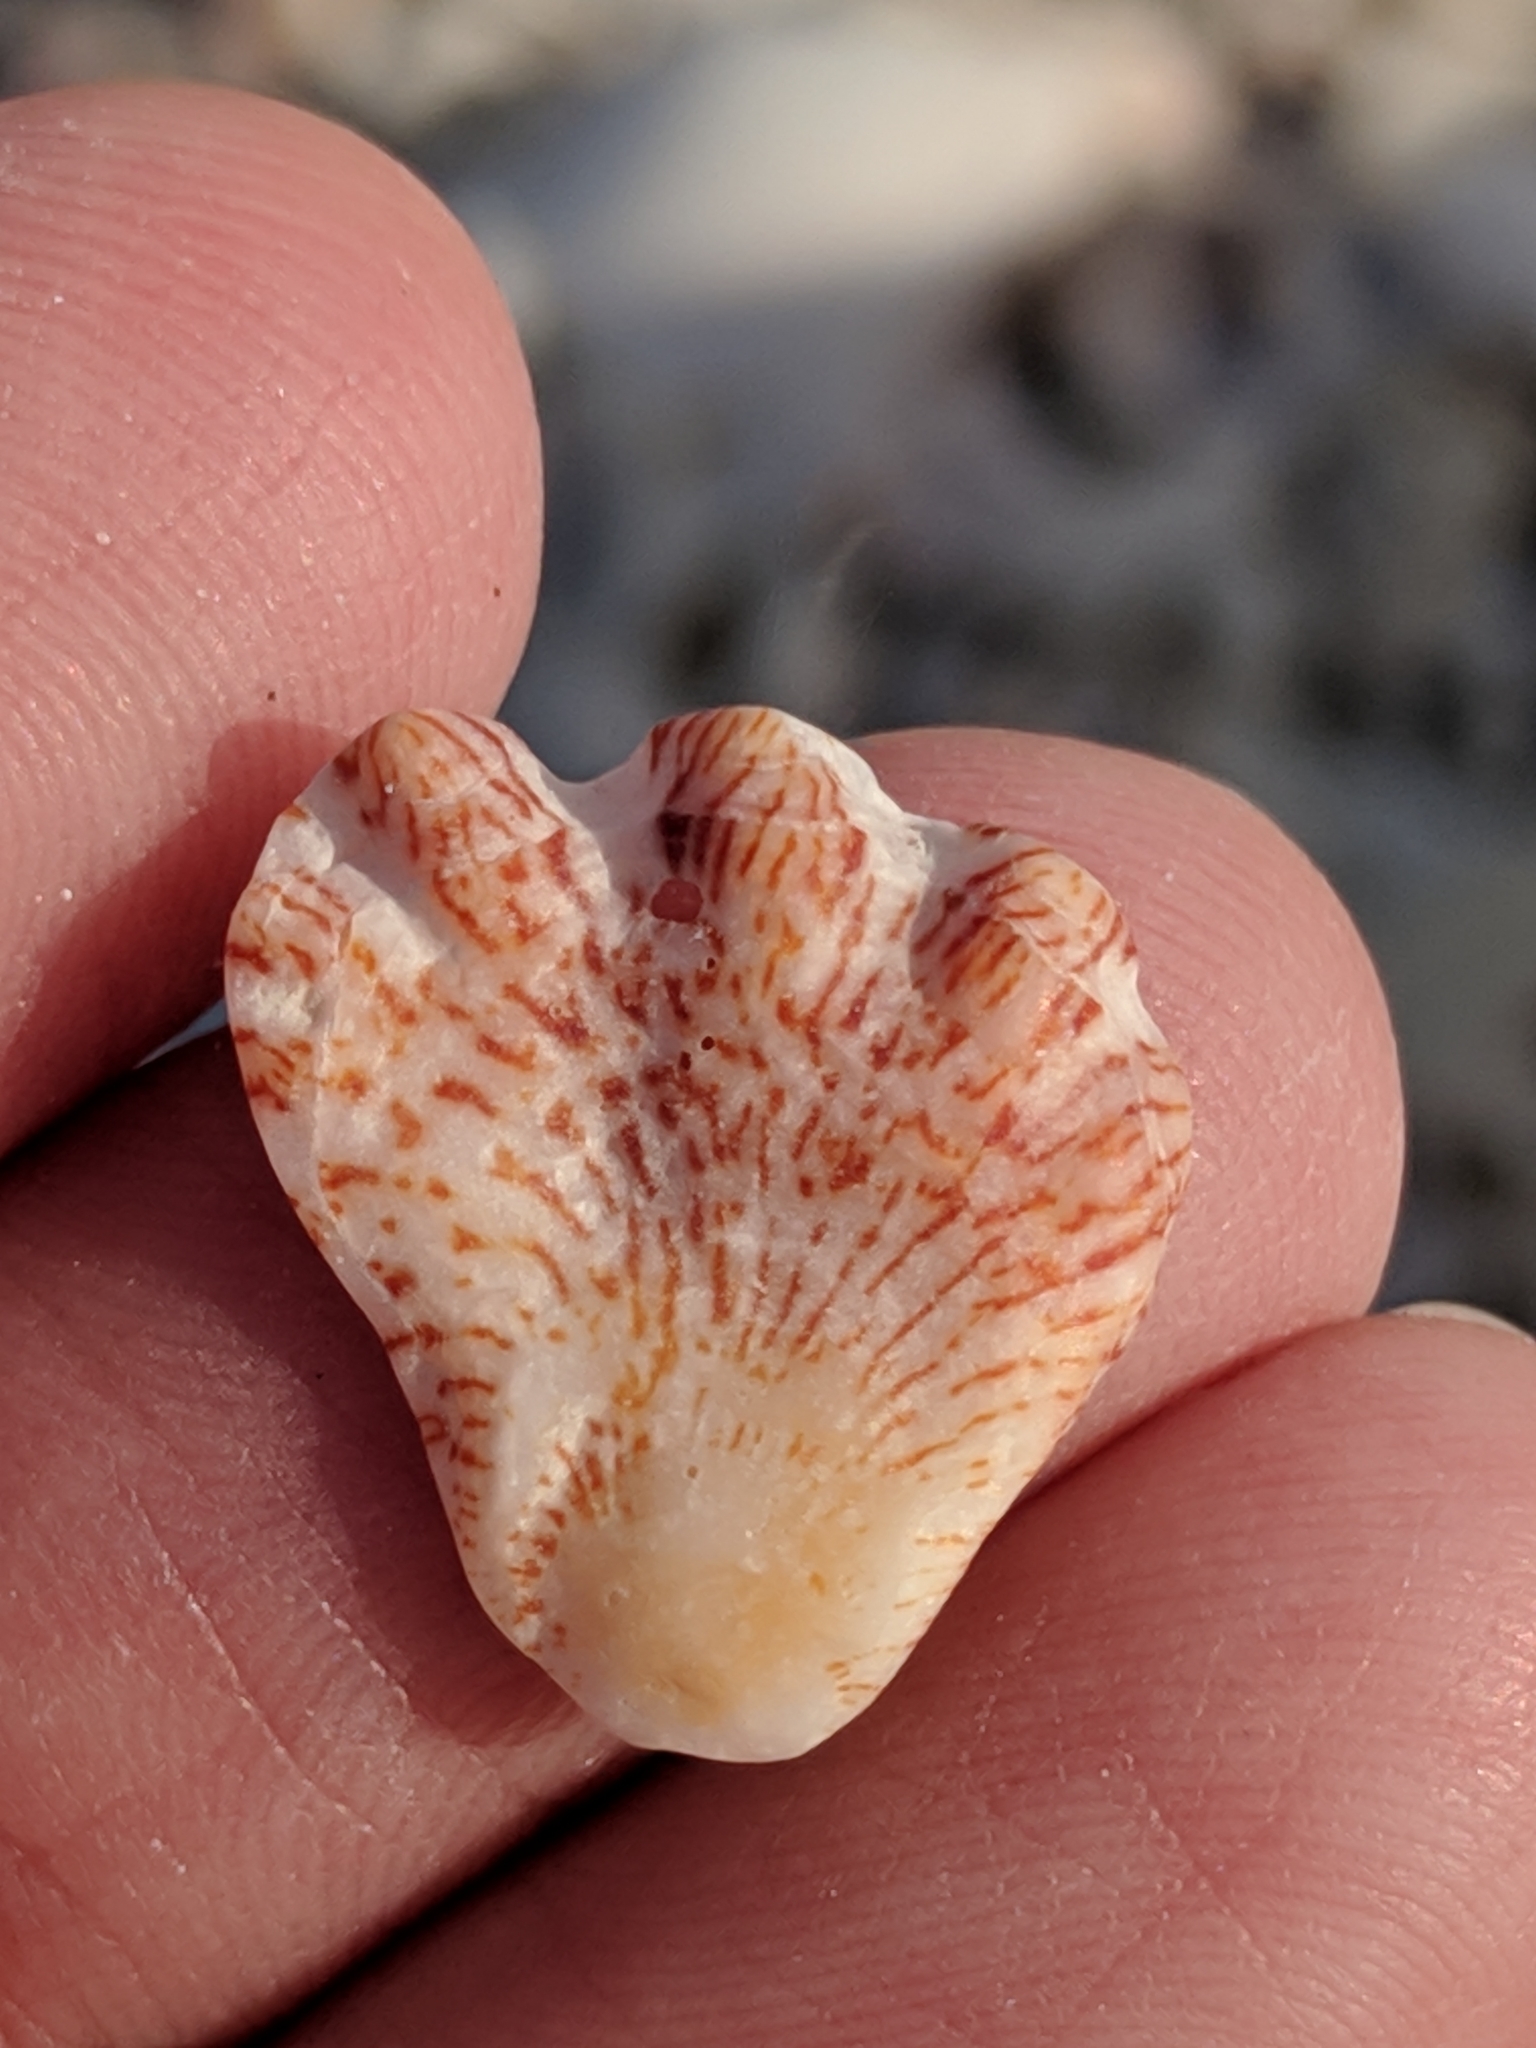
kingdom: Animalia
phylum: Mollusca
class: Bivalvia
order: Pectinida
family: Plicatulidae
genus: Plicatula
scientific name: Plicatula gibbosa
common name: Atlantic kitten's paw
